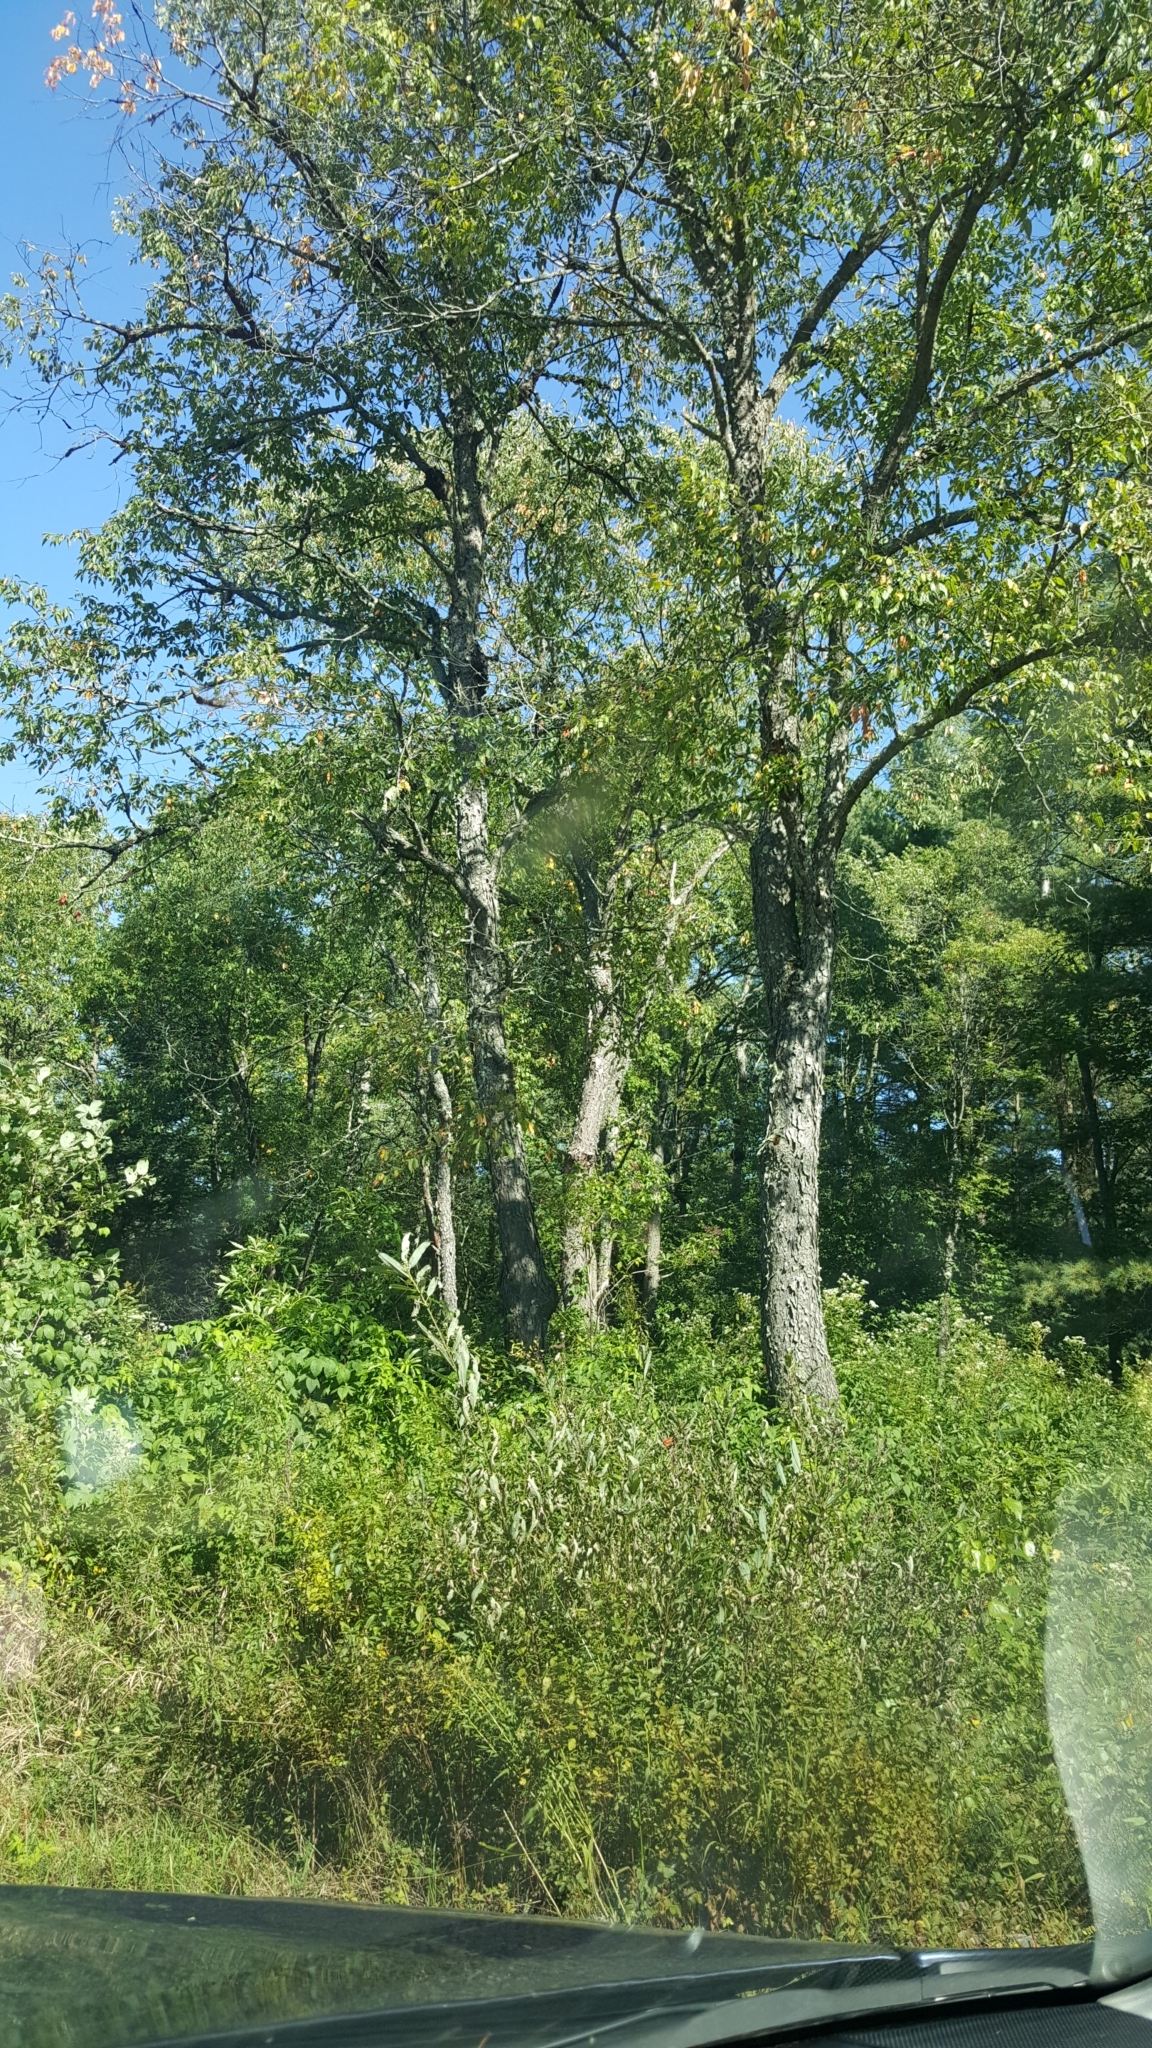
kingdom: Plantae
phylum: Tracheophyta
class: Magnoliopsida
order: Rosales
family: Rosaceae
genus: Prunus
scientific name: Prunus serotina
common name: Black cherry
